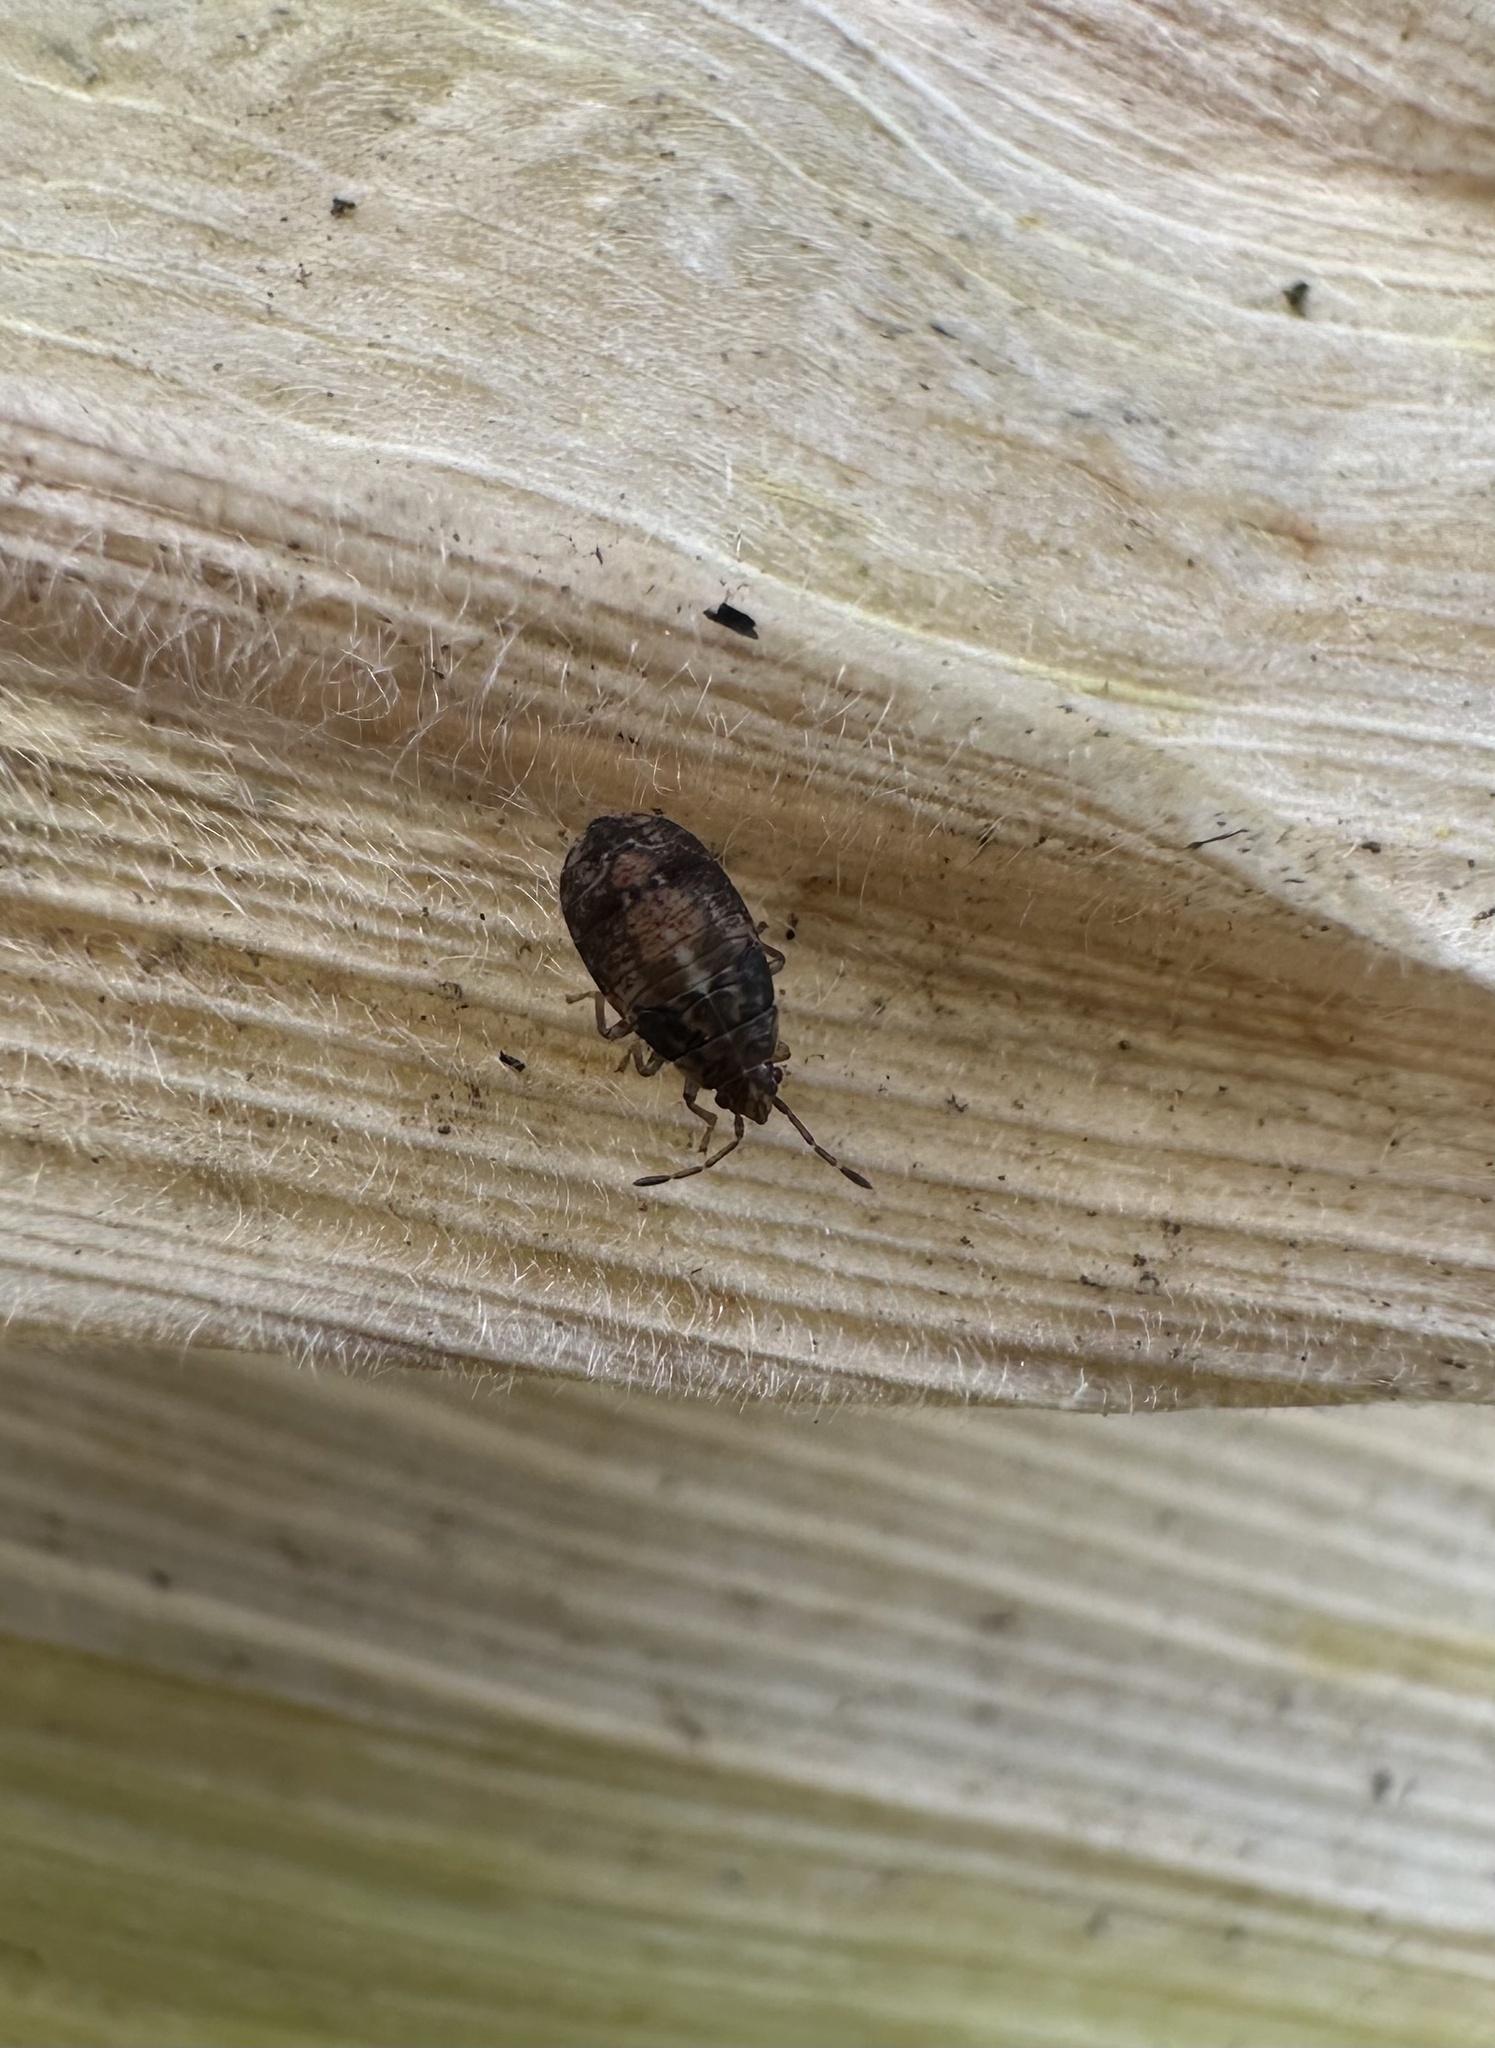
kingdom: Animalia
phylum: Arthropoda
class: Insecta
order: Hemiptera
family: Lygaeidae
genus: Syzygitis
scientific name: Syzygitis poecilus
